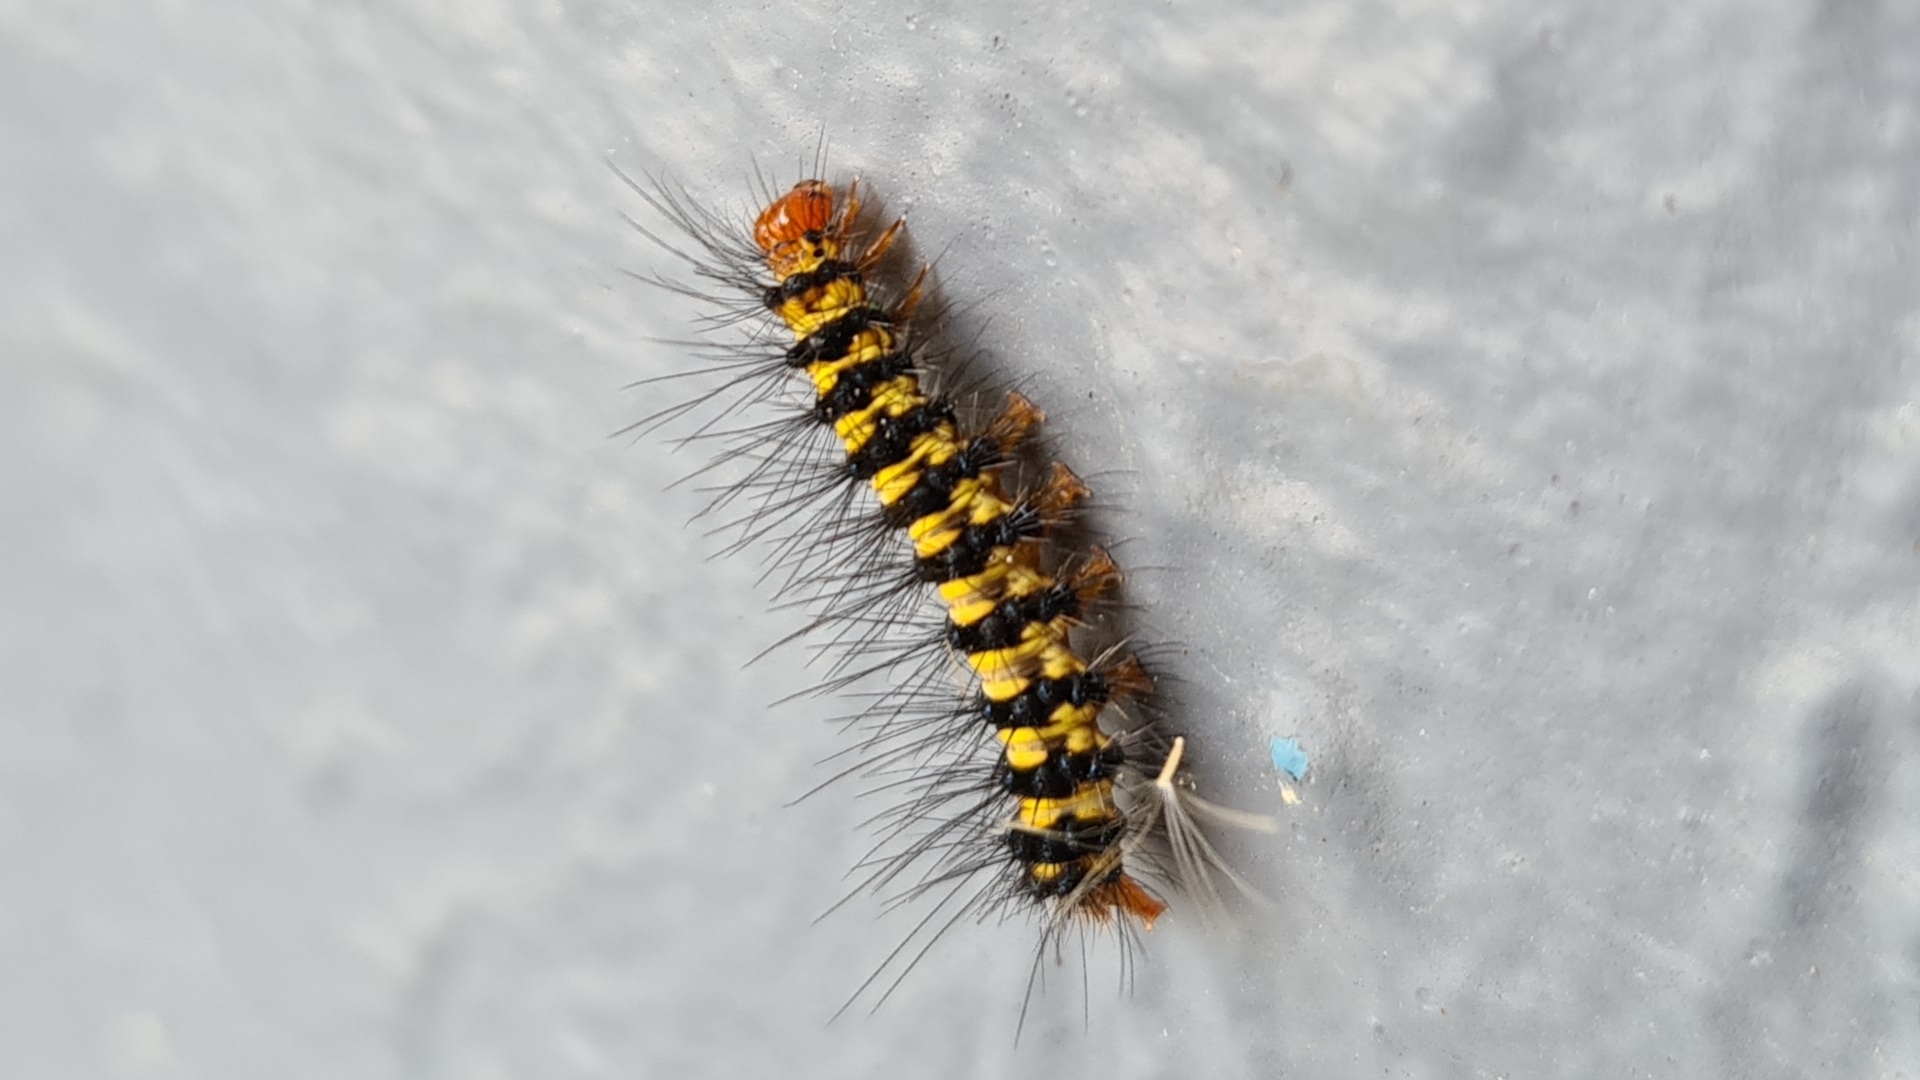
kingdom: Animalia
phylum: Arthropoda
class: Insecta
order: Lepidoptera
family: Erebidae
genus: Nyctemera
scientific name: Nyctemera baulus
